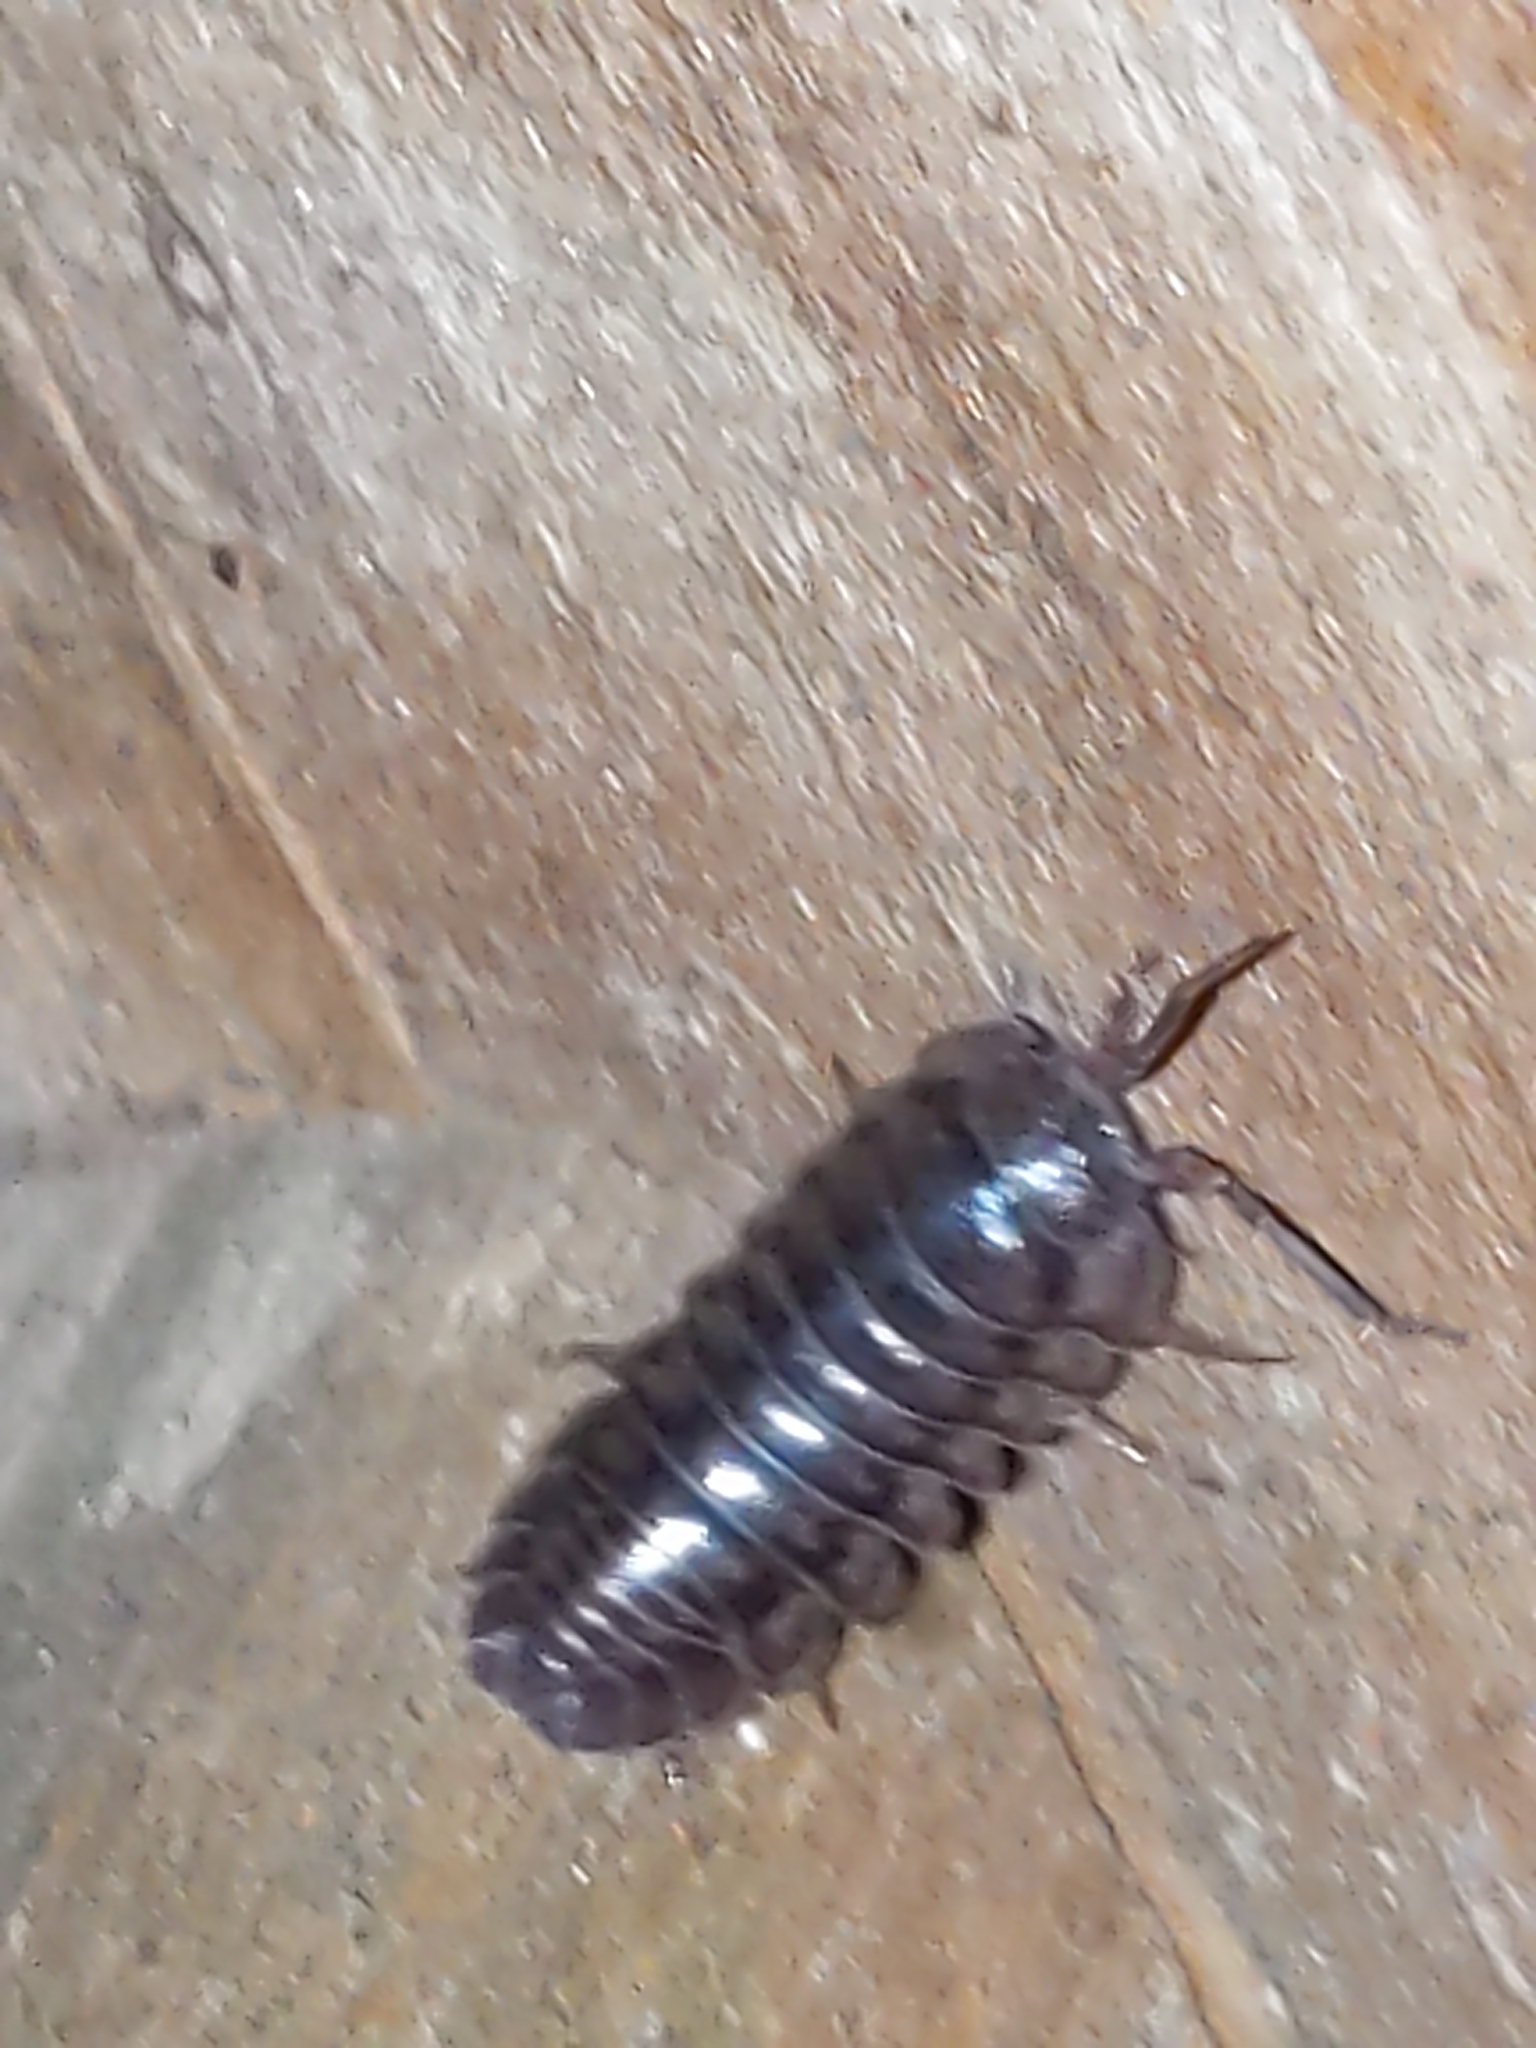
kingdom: Animalia
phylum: Arthropoda
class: Malacostraca
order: Isopoda
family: Armadillidiidae
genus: Armadillidium
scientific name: Armadillidium nasatum
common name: Isopod
